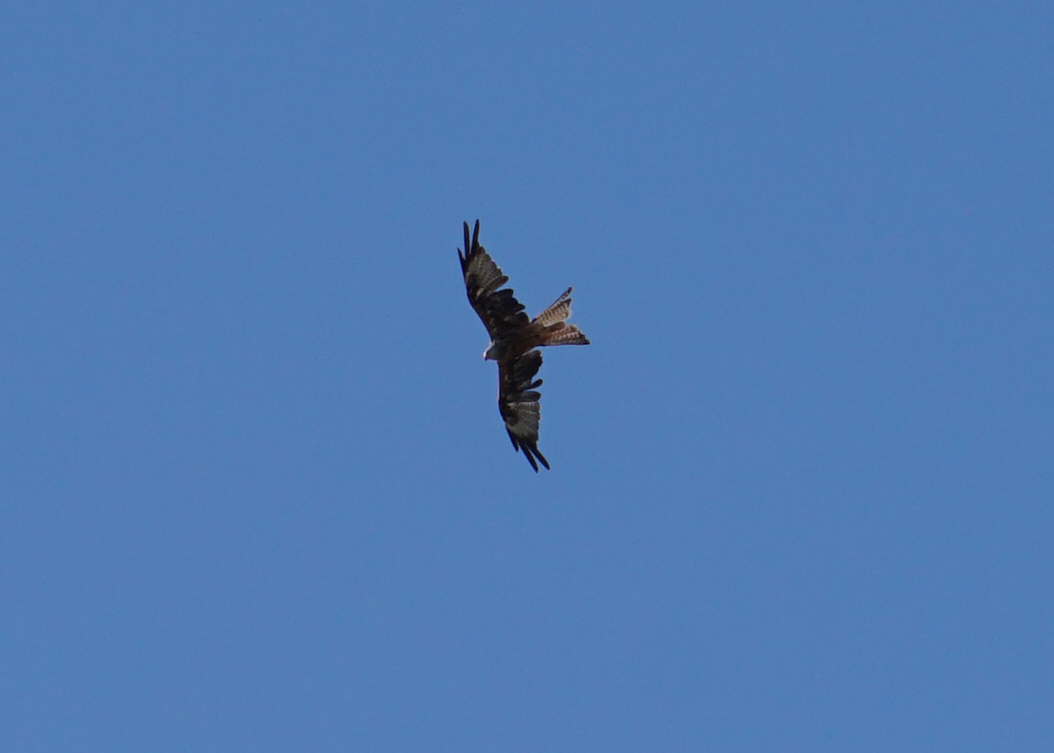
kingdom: Animalia
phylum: Chordata
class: Aves
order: Accipitriformes
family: Accipitridae
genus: Milvus
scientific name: Milvus milvus
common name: Red kite
